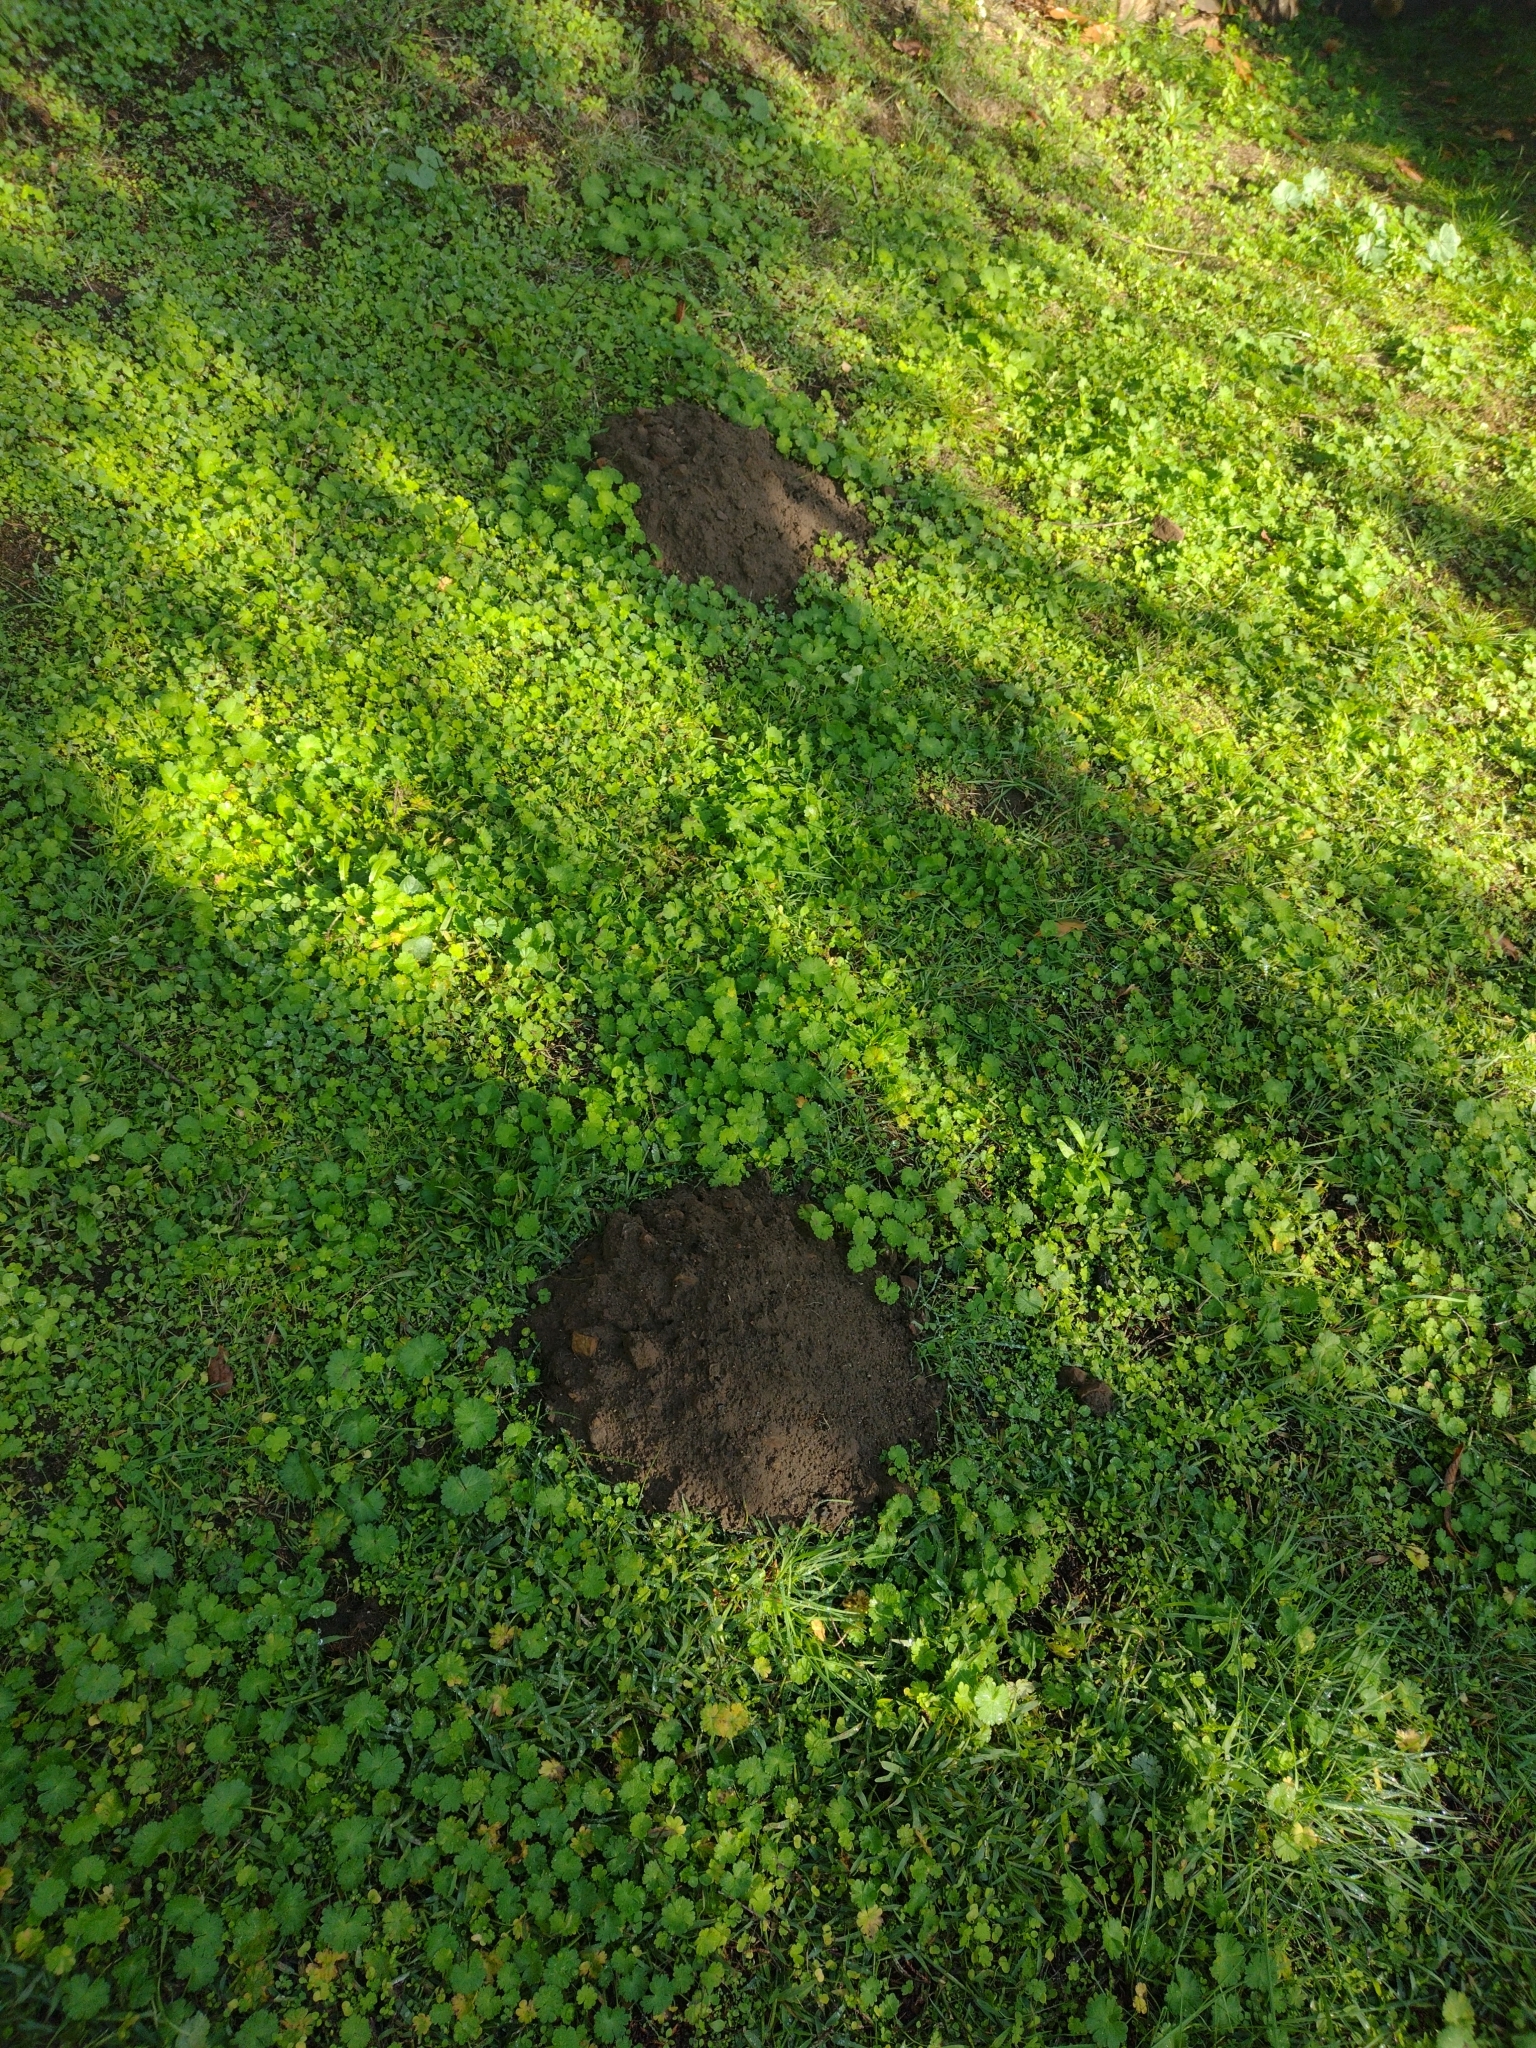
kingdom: Animalia
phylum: Chordata
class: Mammalia
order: Soricomorpha
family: Talpidae
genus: Talpa
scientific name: Talpa europaea
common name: European mole
